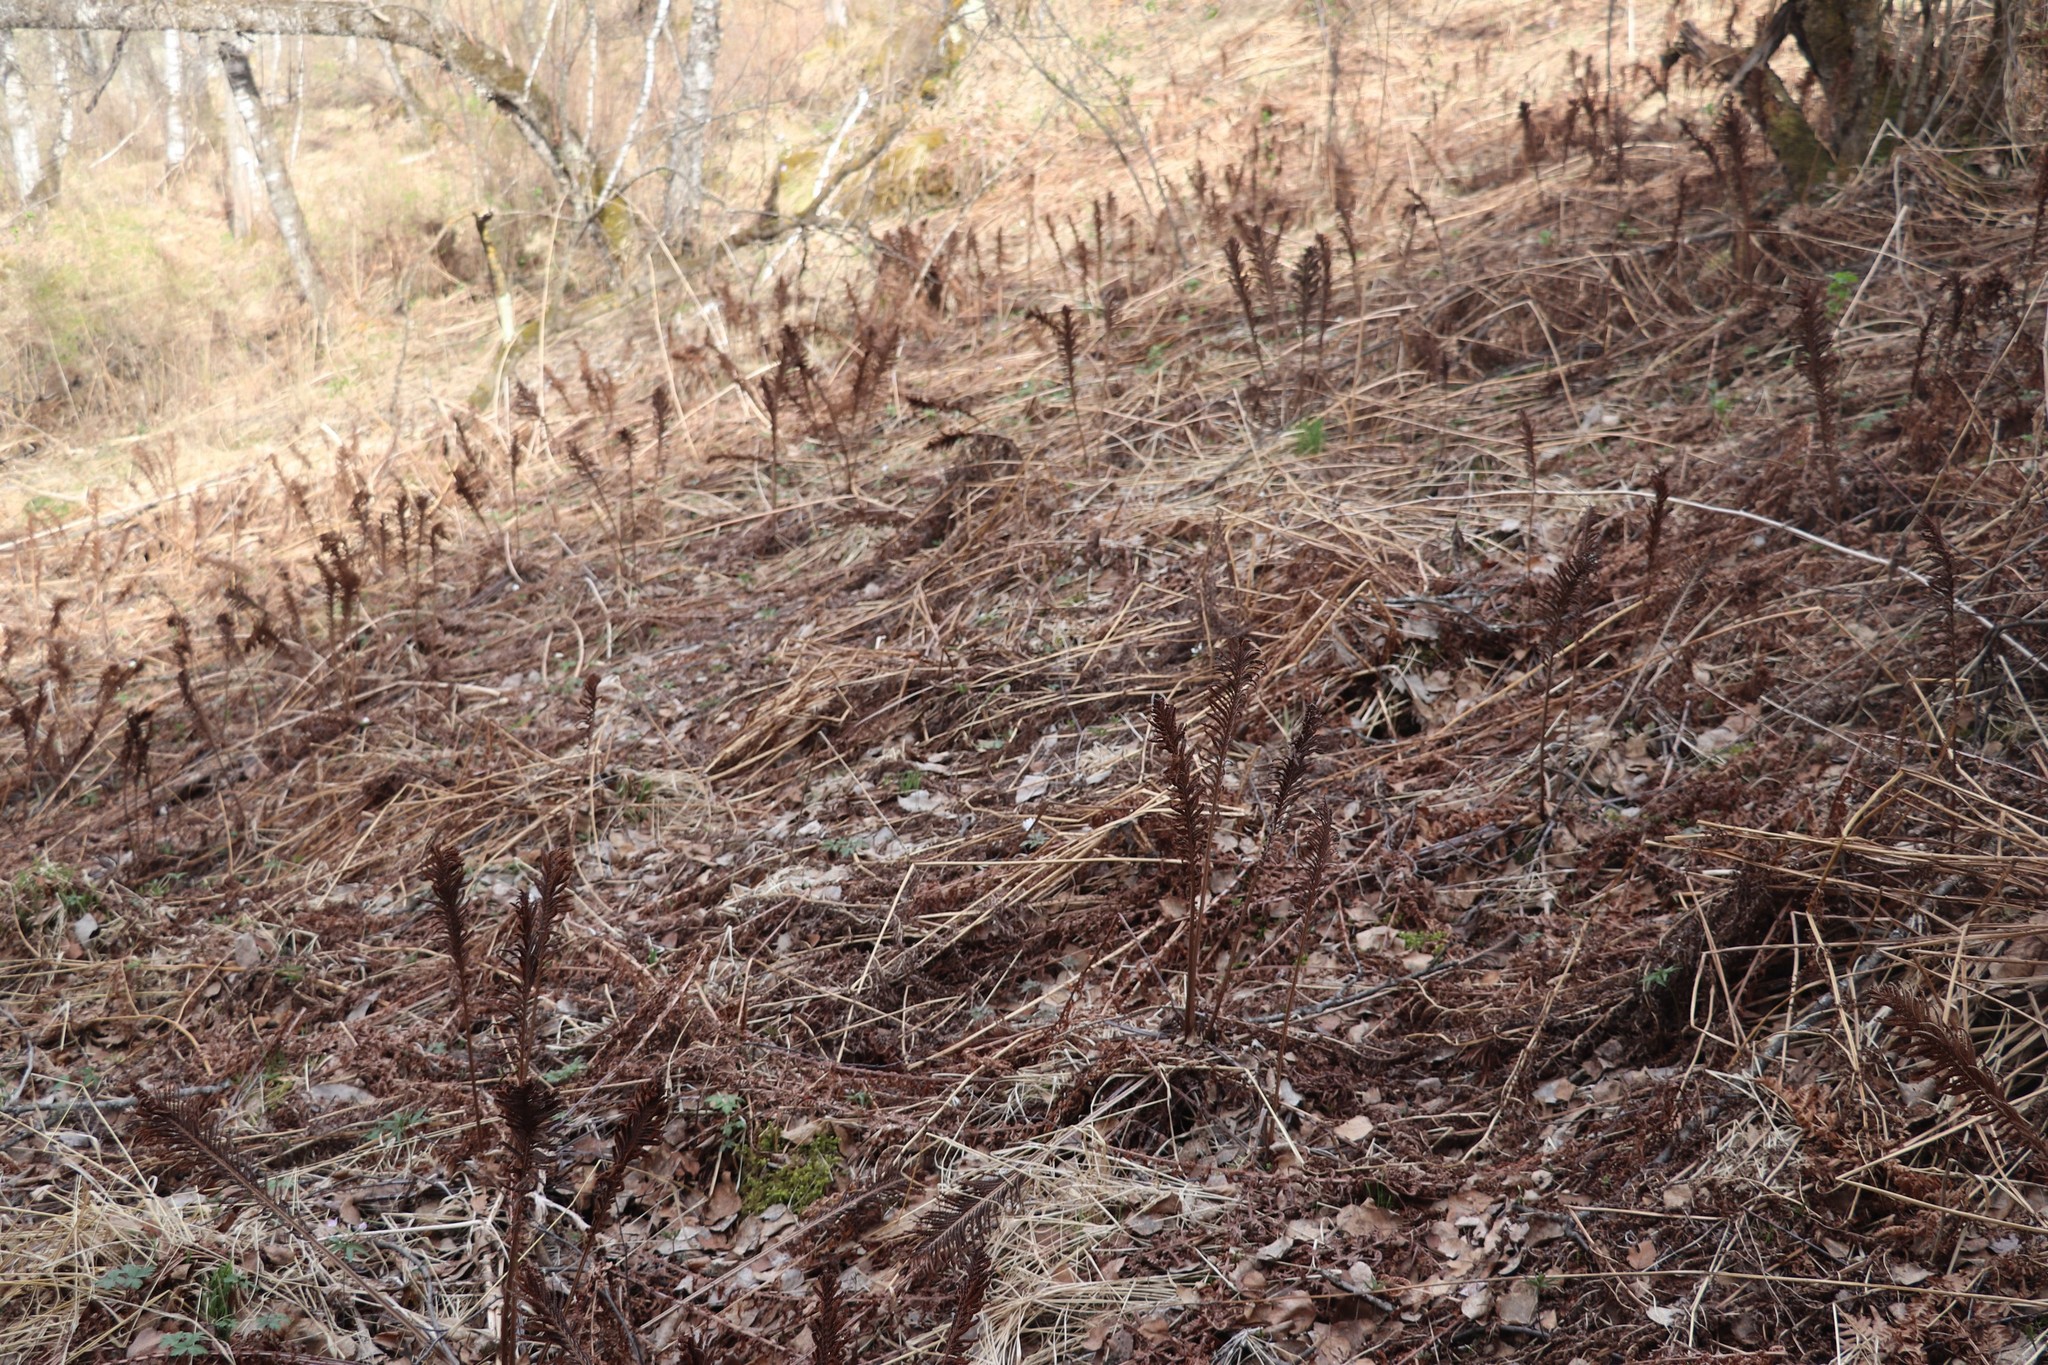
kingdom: Plantae
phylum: Tracheophyta
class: Polypodiopsida
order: Polypodiales
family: Onocleaceae
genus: Matteuccia
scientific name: Matteuccia struthiopteris
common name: Ostrich fern
